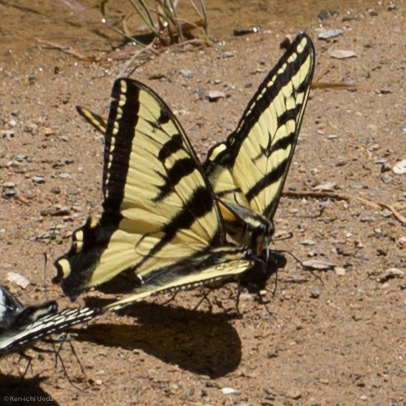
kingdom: Animalia
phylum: Arthropoda
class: Insecta
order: Lepidoptera
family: Papilionidae
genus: Papilio
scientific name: Papilio rutulus
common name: Western tiger swallowtail
